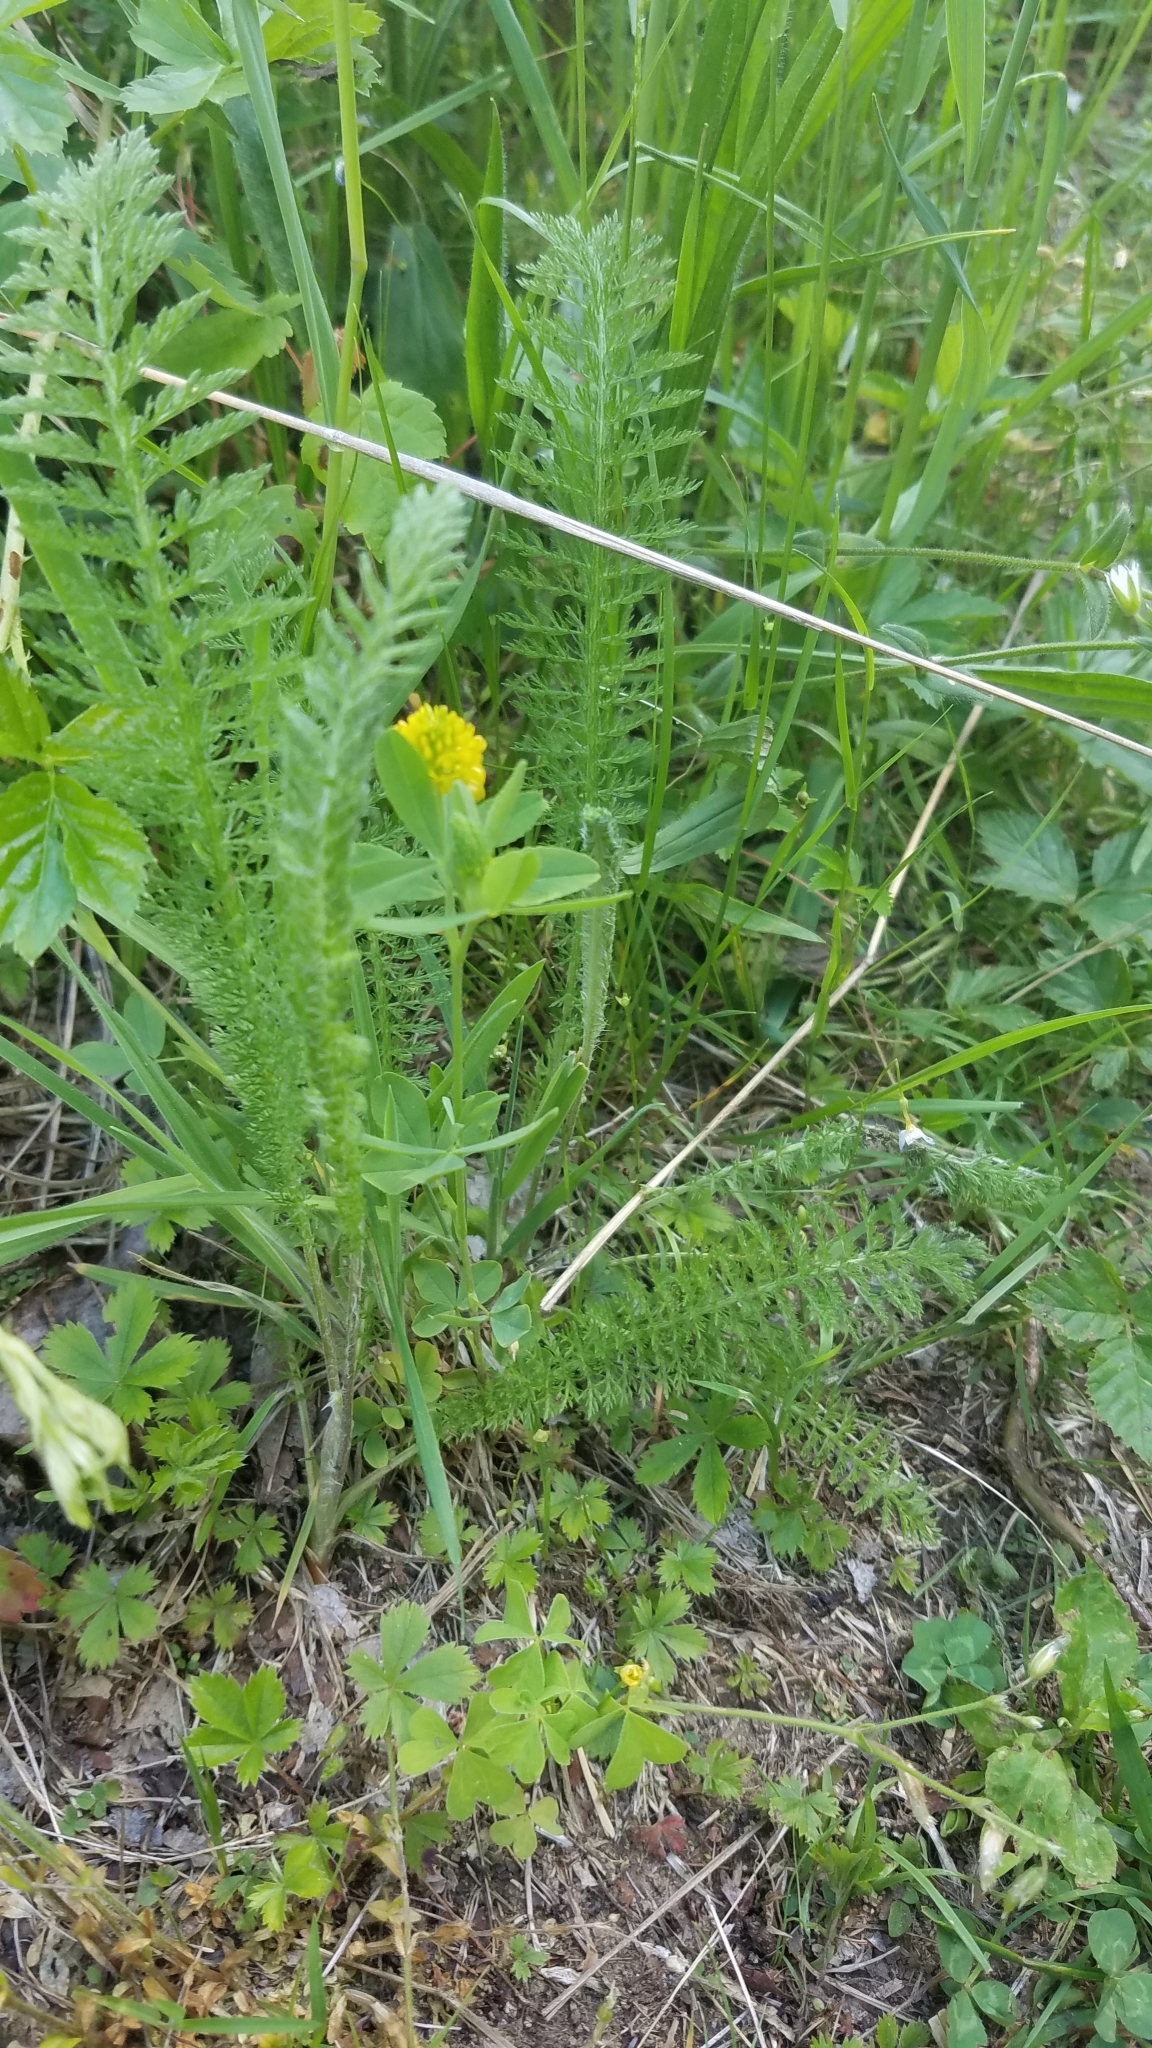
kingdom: Plantae
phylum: Tracheophyta
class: Magnoliopsida
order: Asterales
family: Asteraceae
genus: Achillea
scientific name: Achillea millefolium
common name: Yarrow
